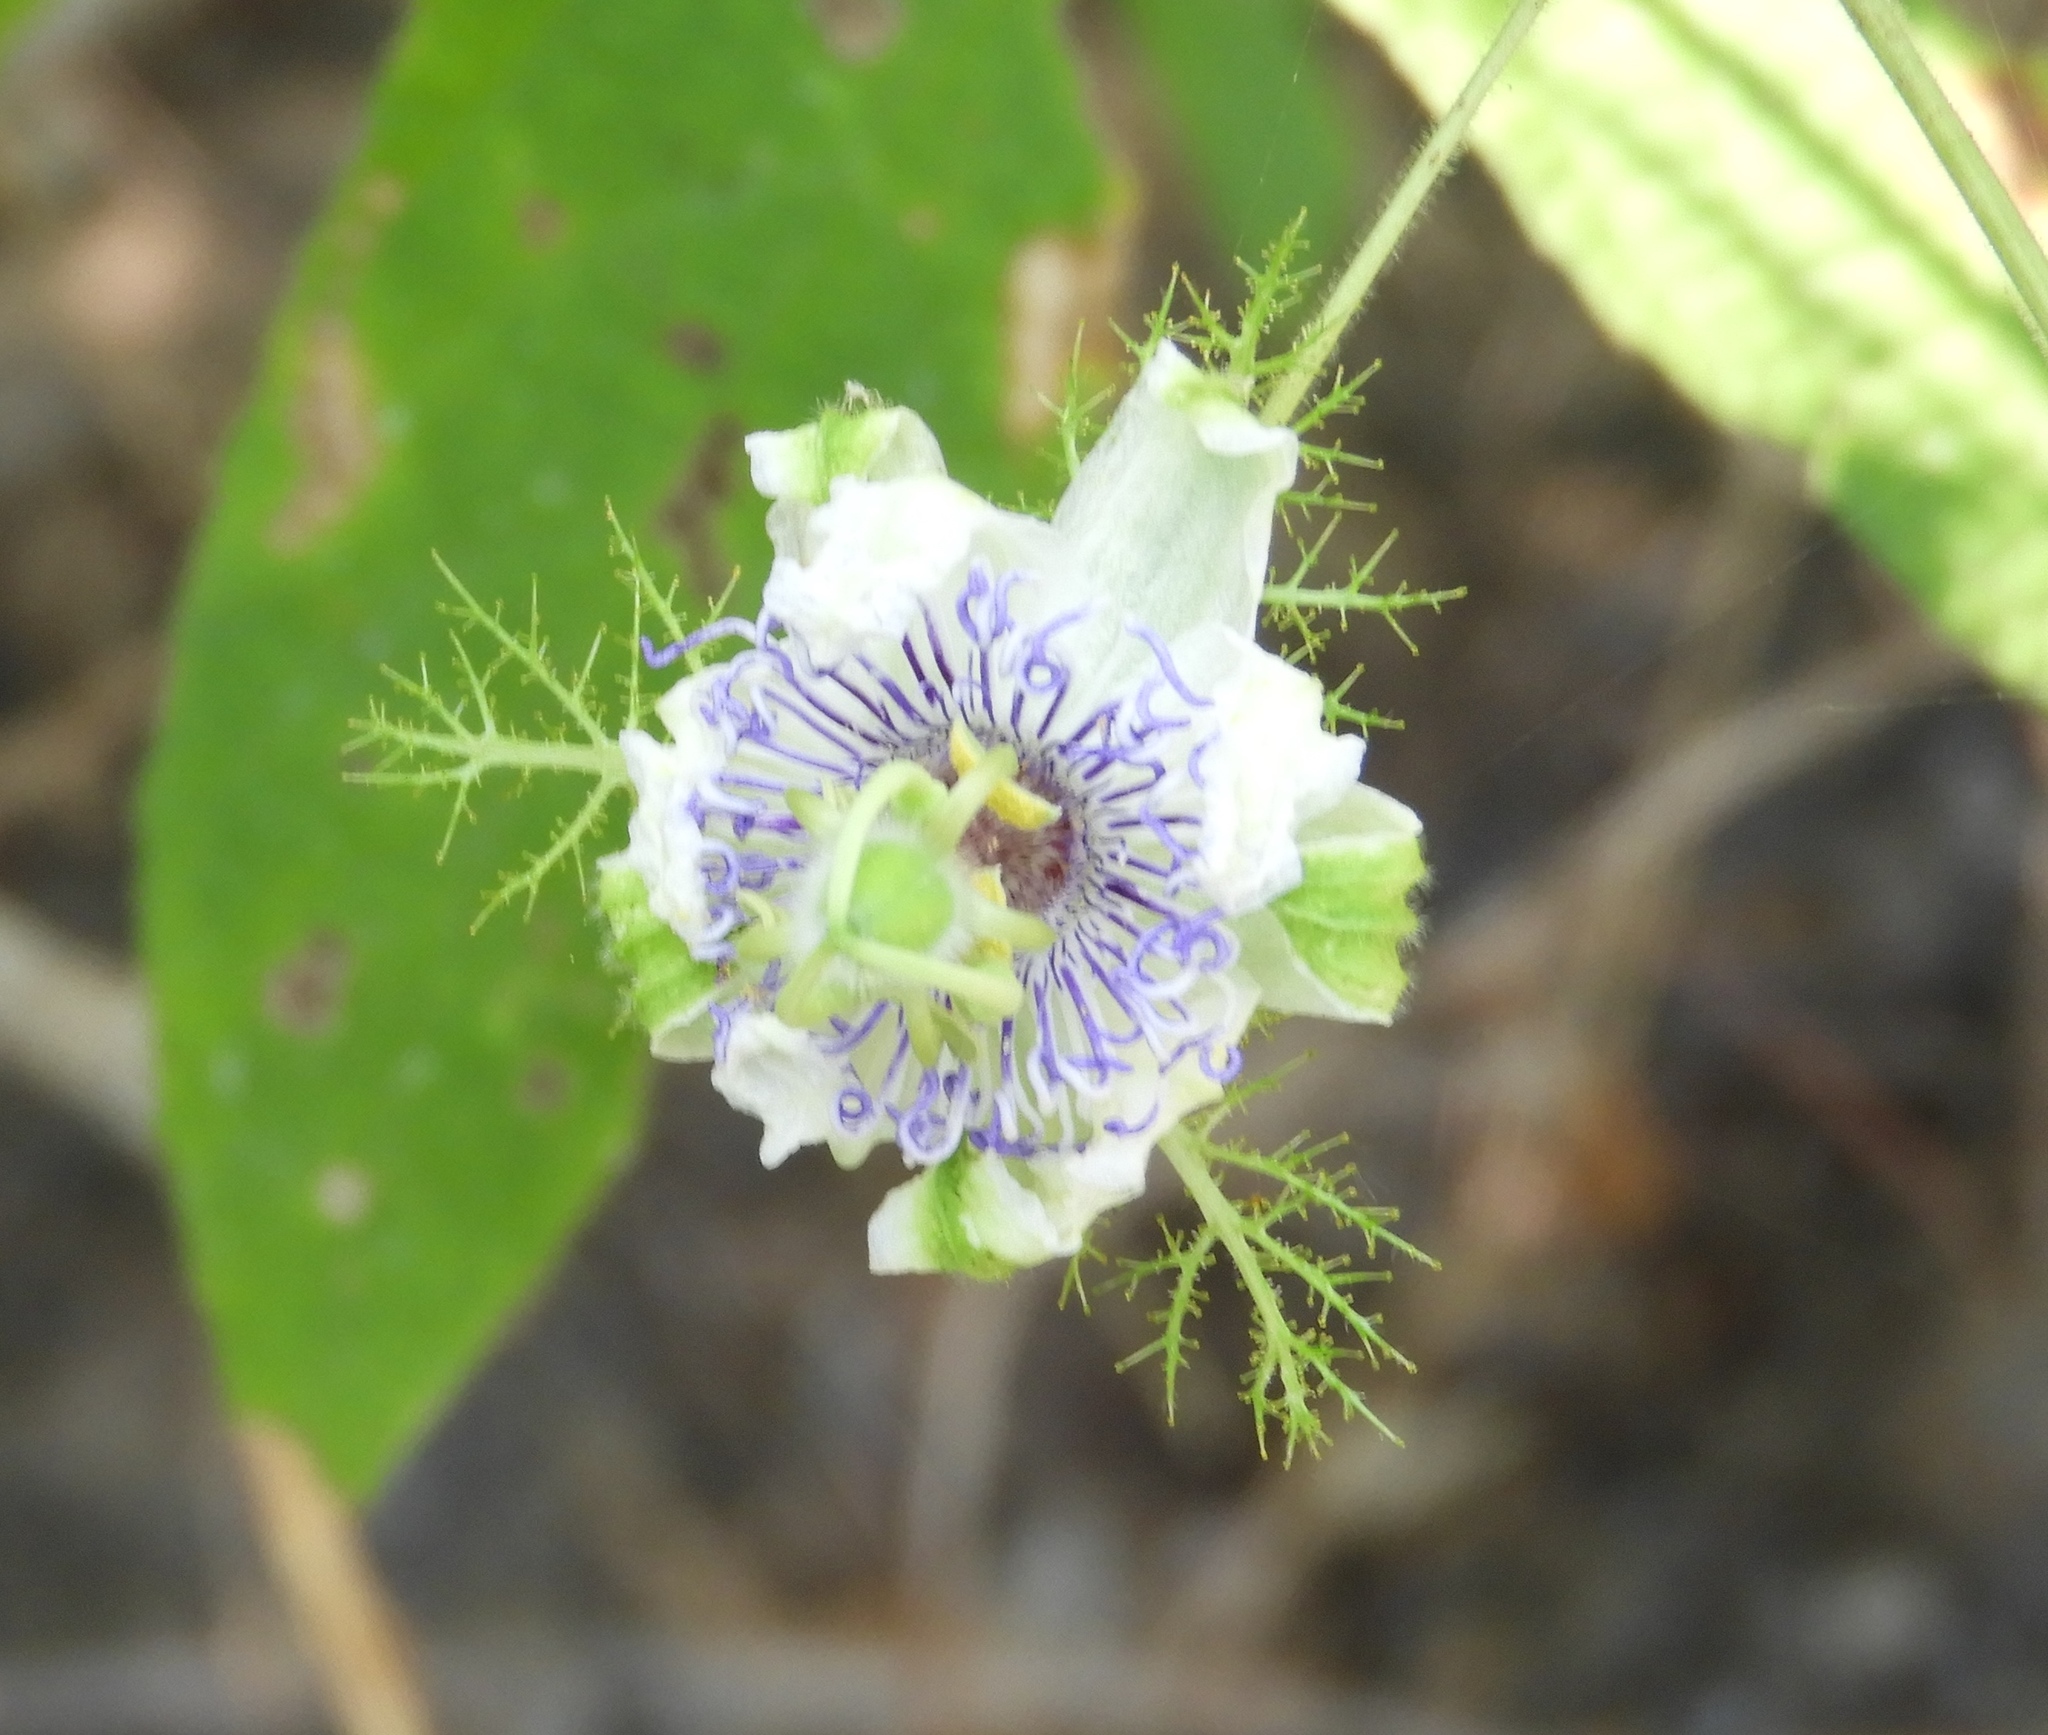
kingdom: Plantae
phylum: Tracheophyta
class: Magnoliopsida
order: Malpighiales
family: Passifloraceae
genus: Passiflora
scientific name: Passiflora foetida
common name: Fetid passionflower
